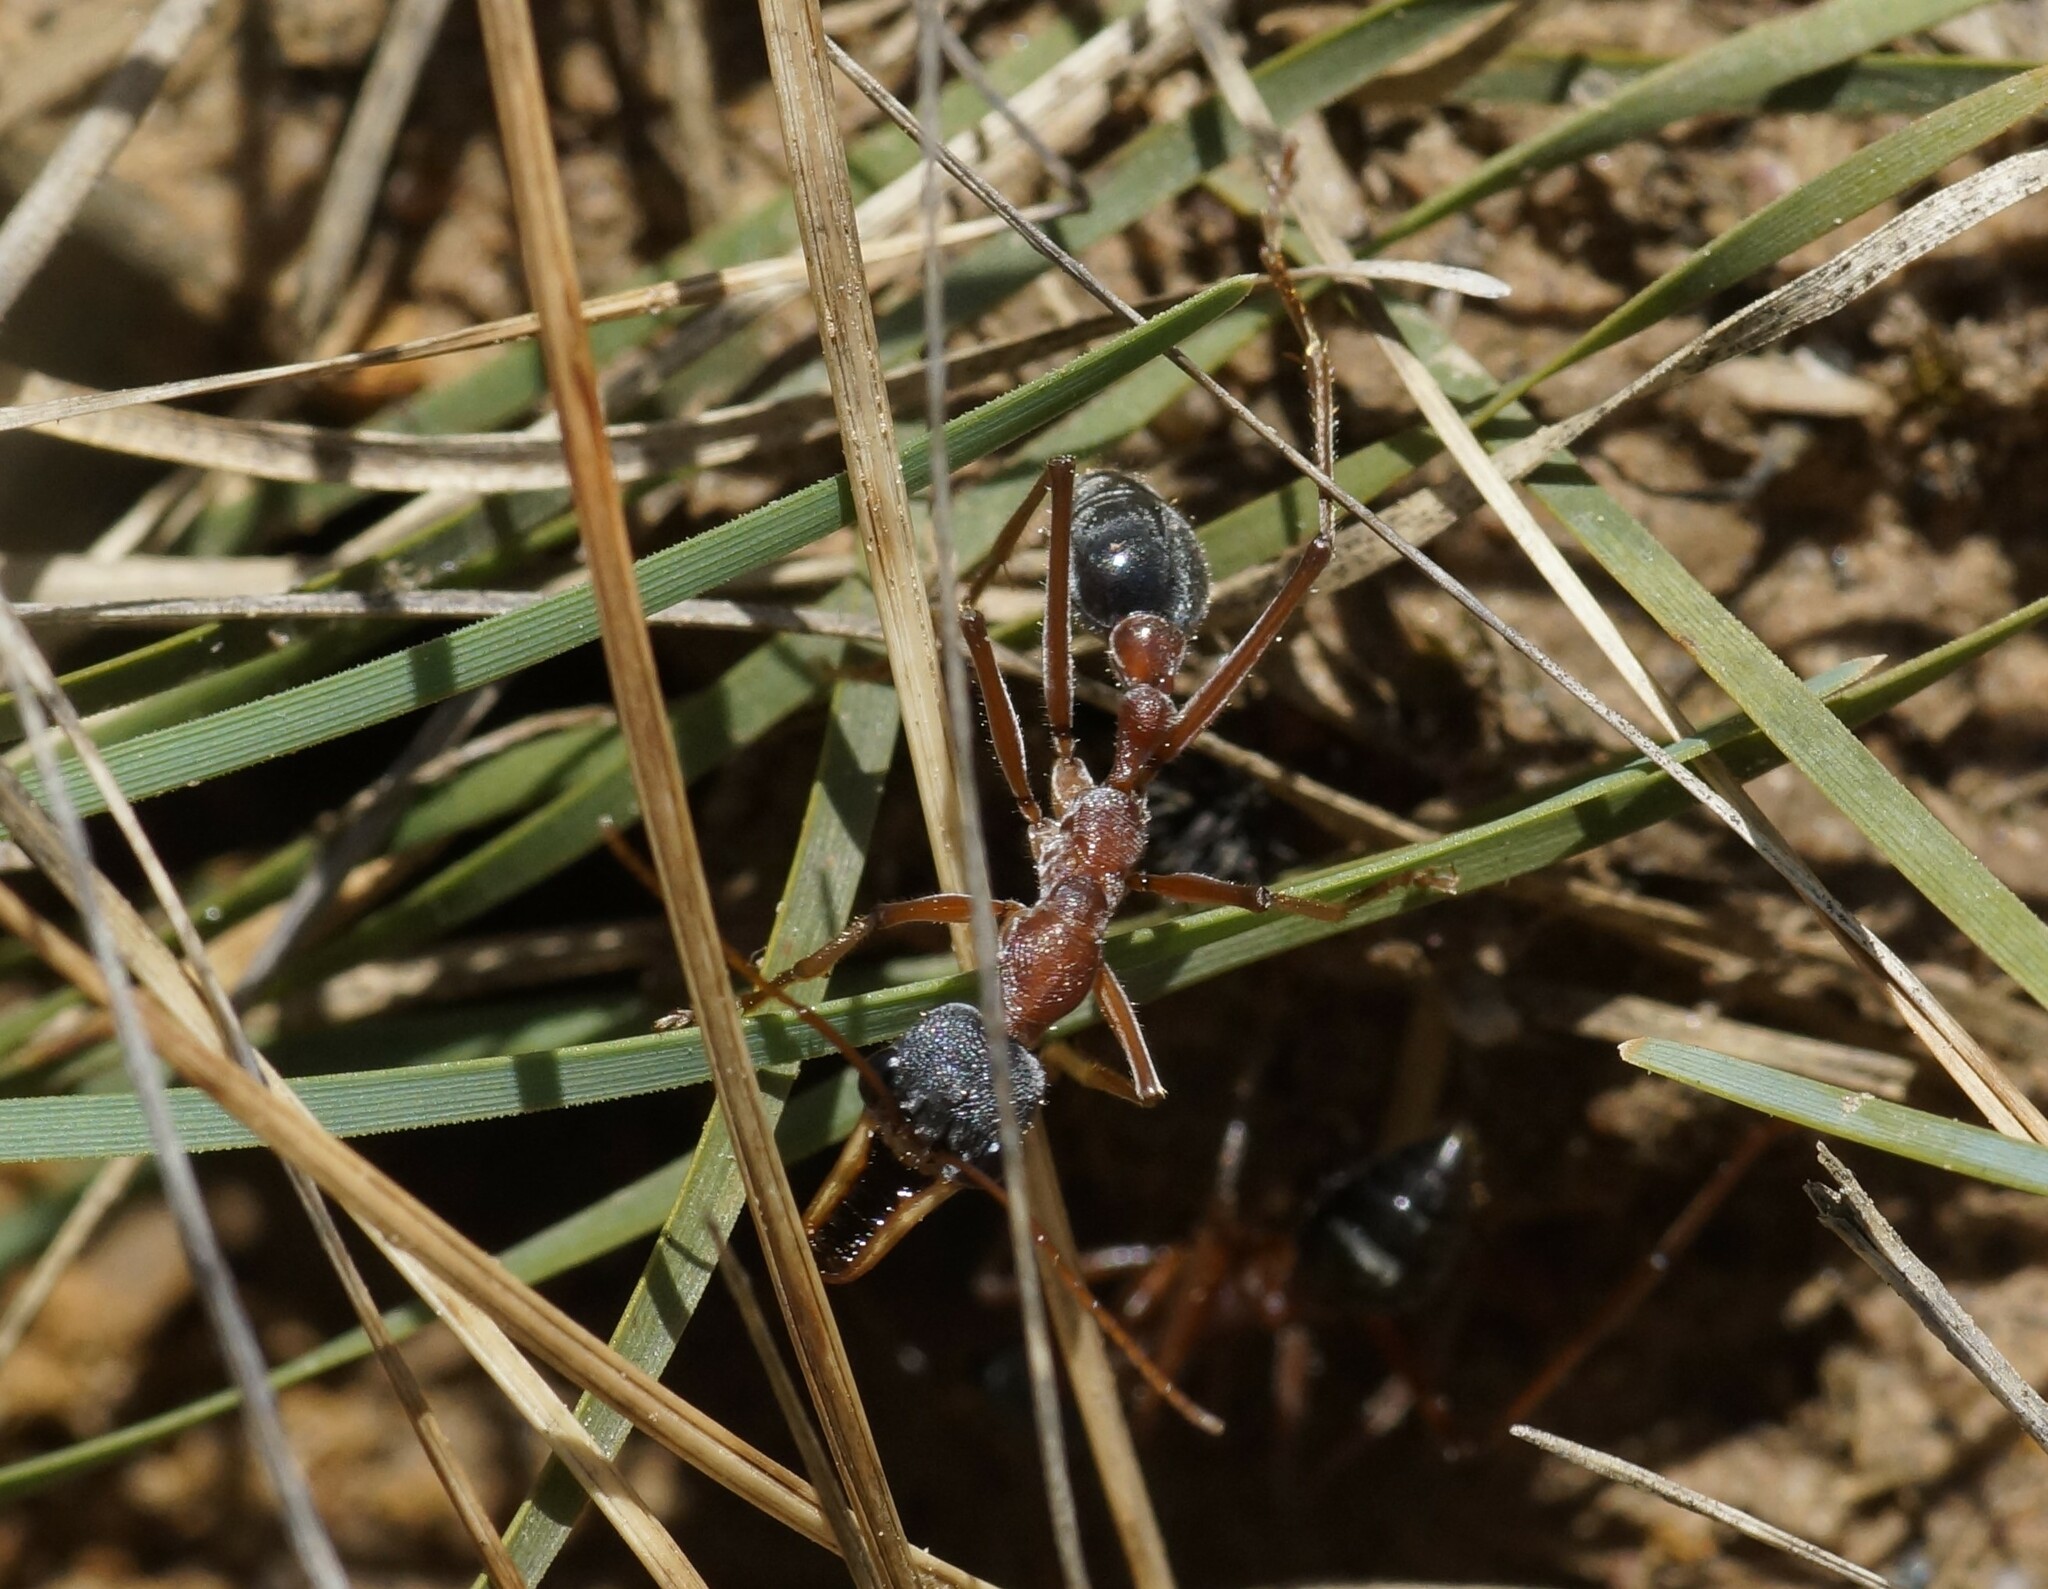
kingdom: Animalia
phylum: Arthropoda
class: Insecta
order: Hymenoptera
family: Formicidae
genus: Myrmecia
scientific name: Myrmecia nigriceps
